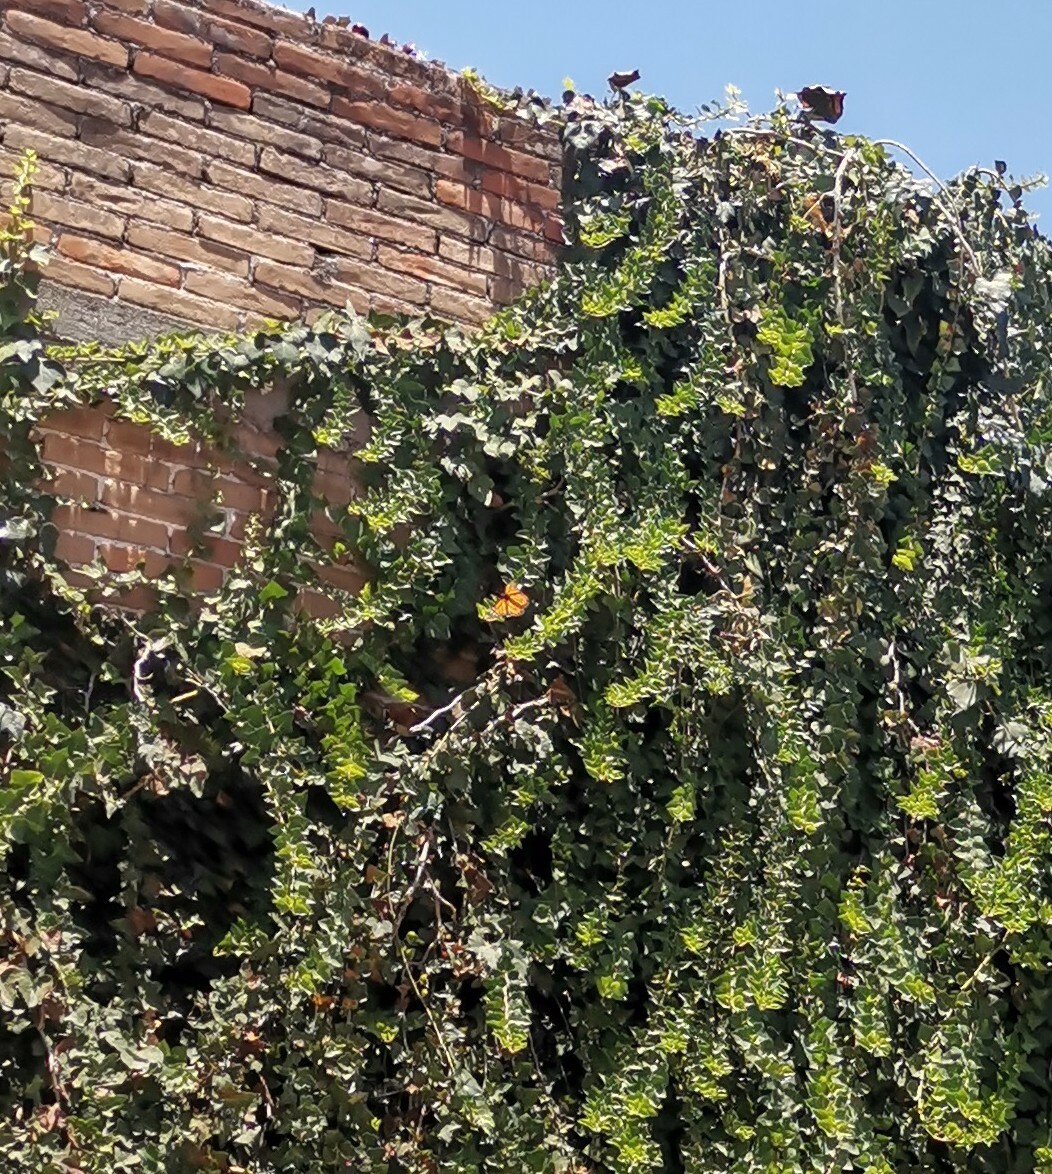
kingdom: Animalia
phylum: Arthropoda
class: Insecta
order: Lepidoptera
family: Nymphalidae
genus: Danaus
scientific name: Danaus plexippus
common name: Monarch
